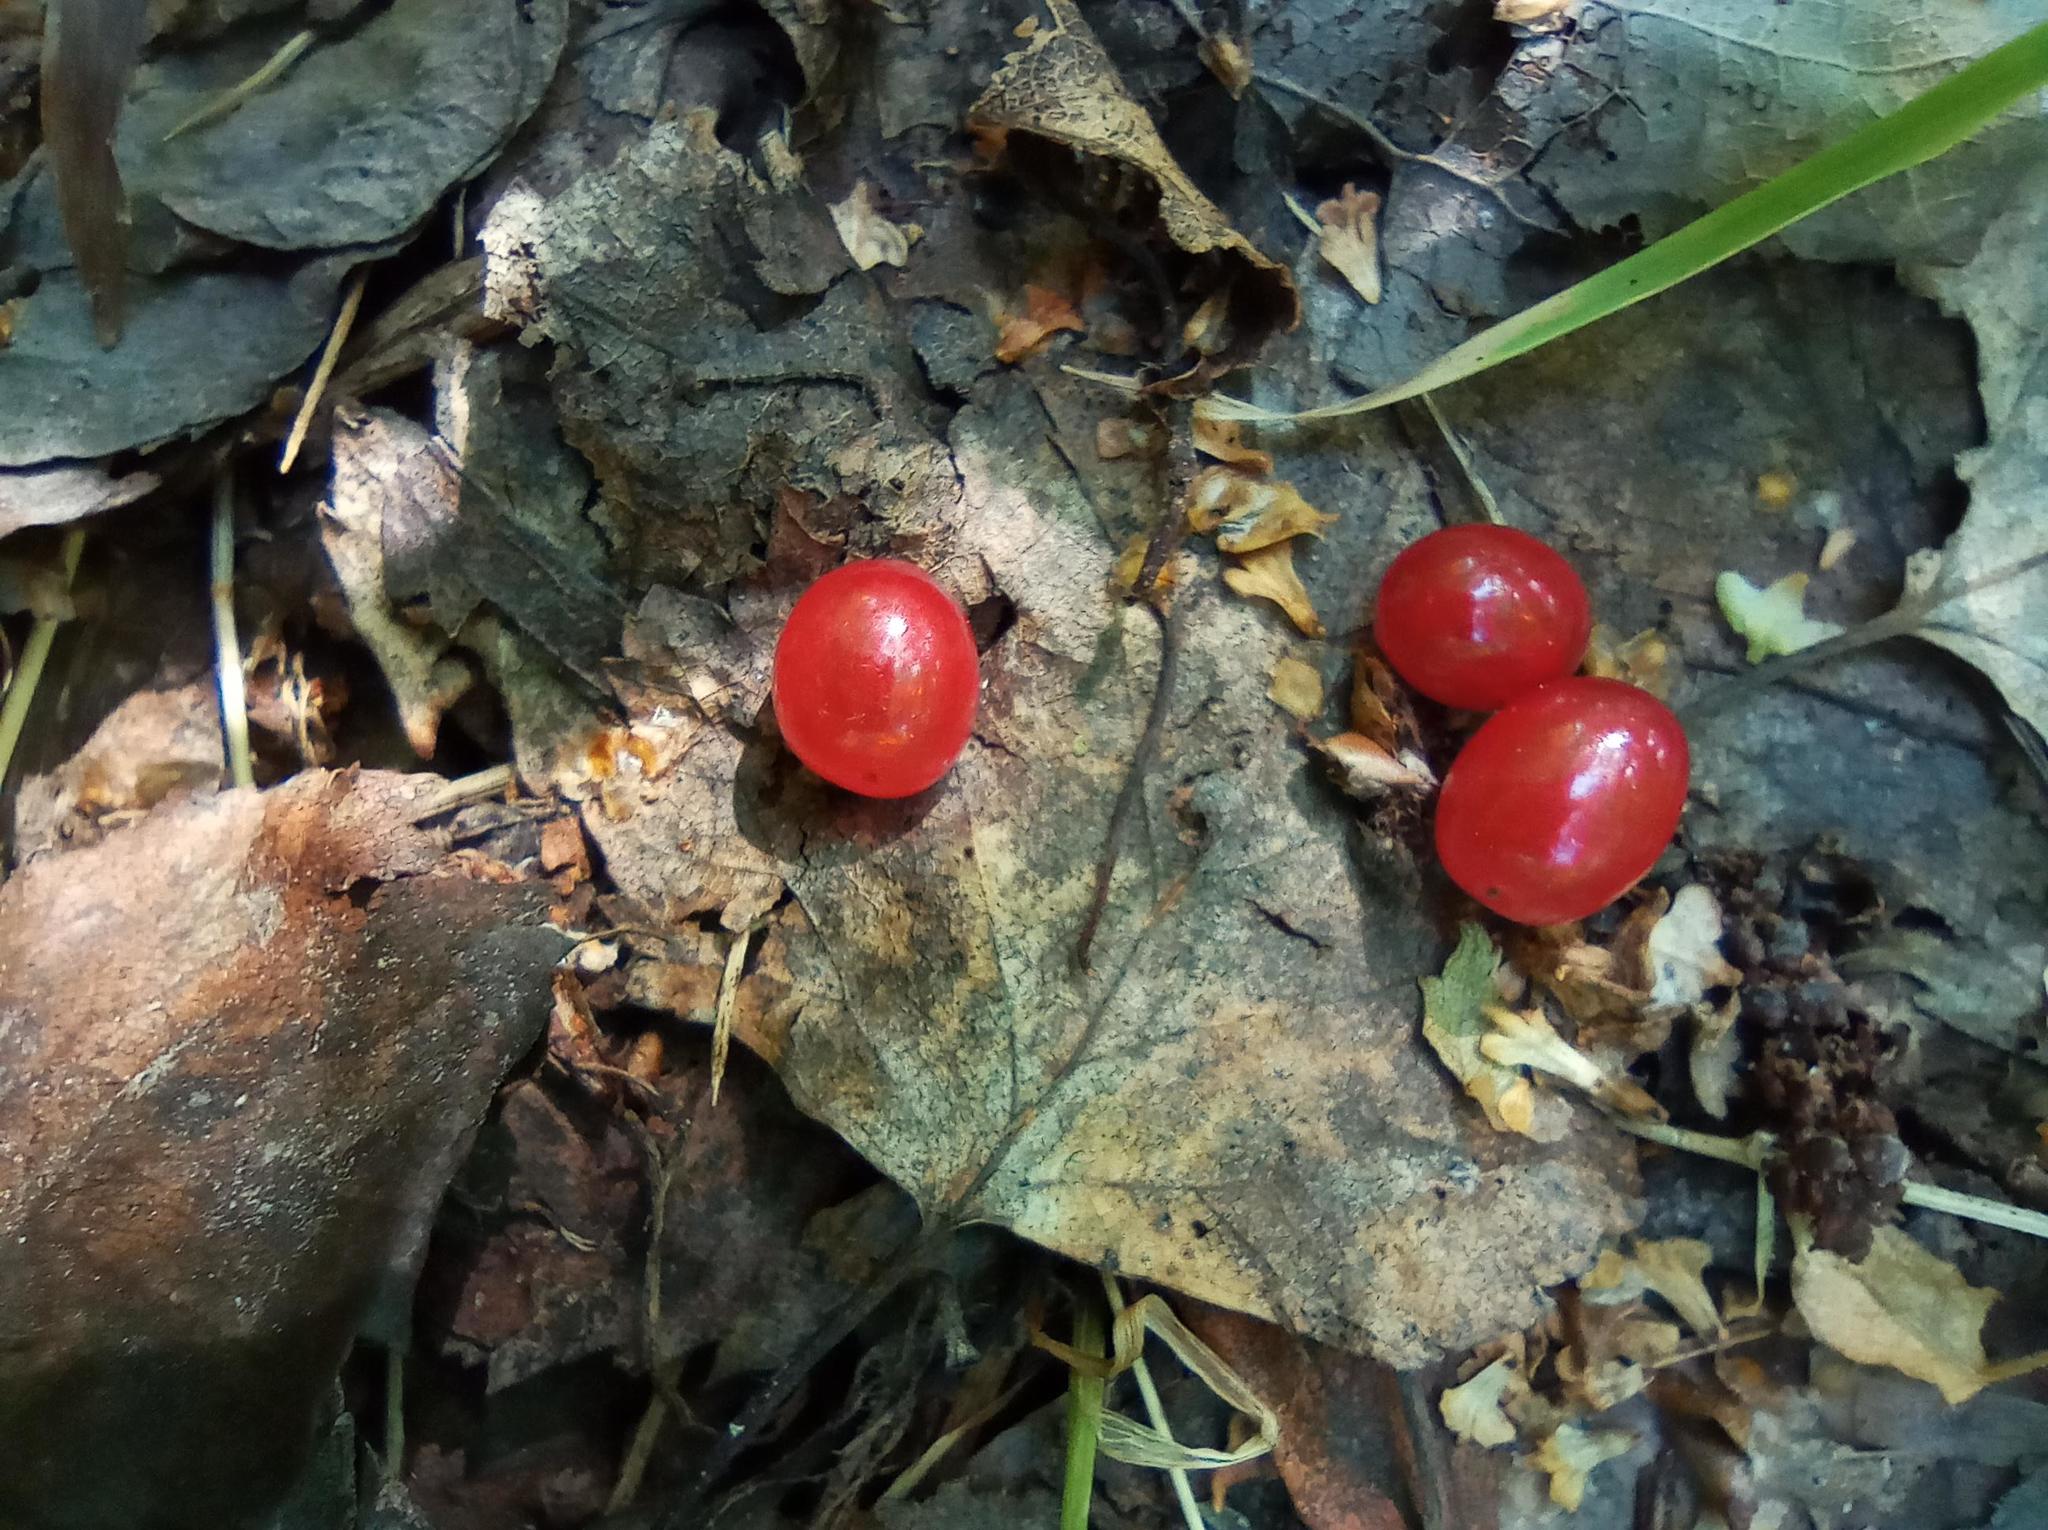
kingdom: Plantae
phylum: Tracheophyta
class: Magnoliopsida
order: Malvales
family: Thymelaeaceae
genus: Daphne
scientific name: Daphne mezereum
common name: Mezereon
